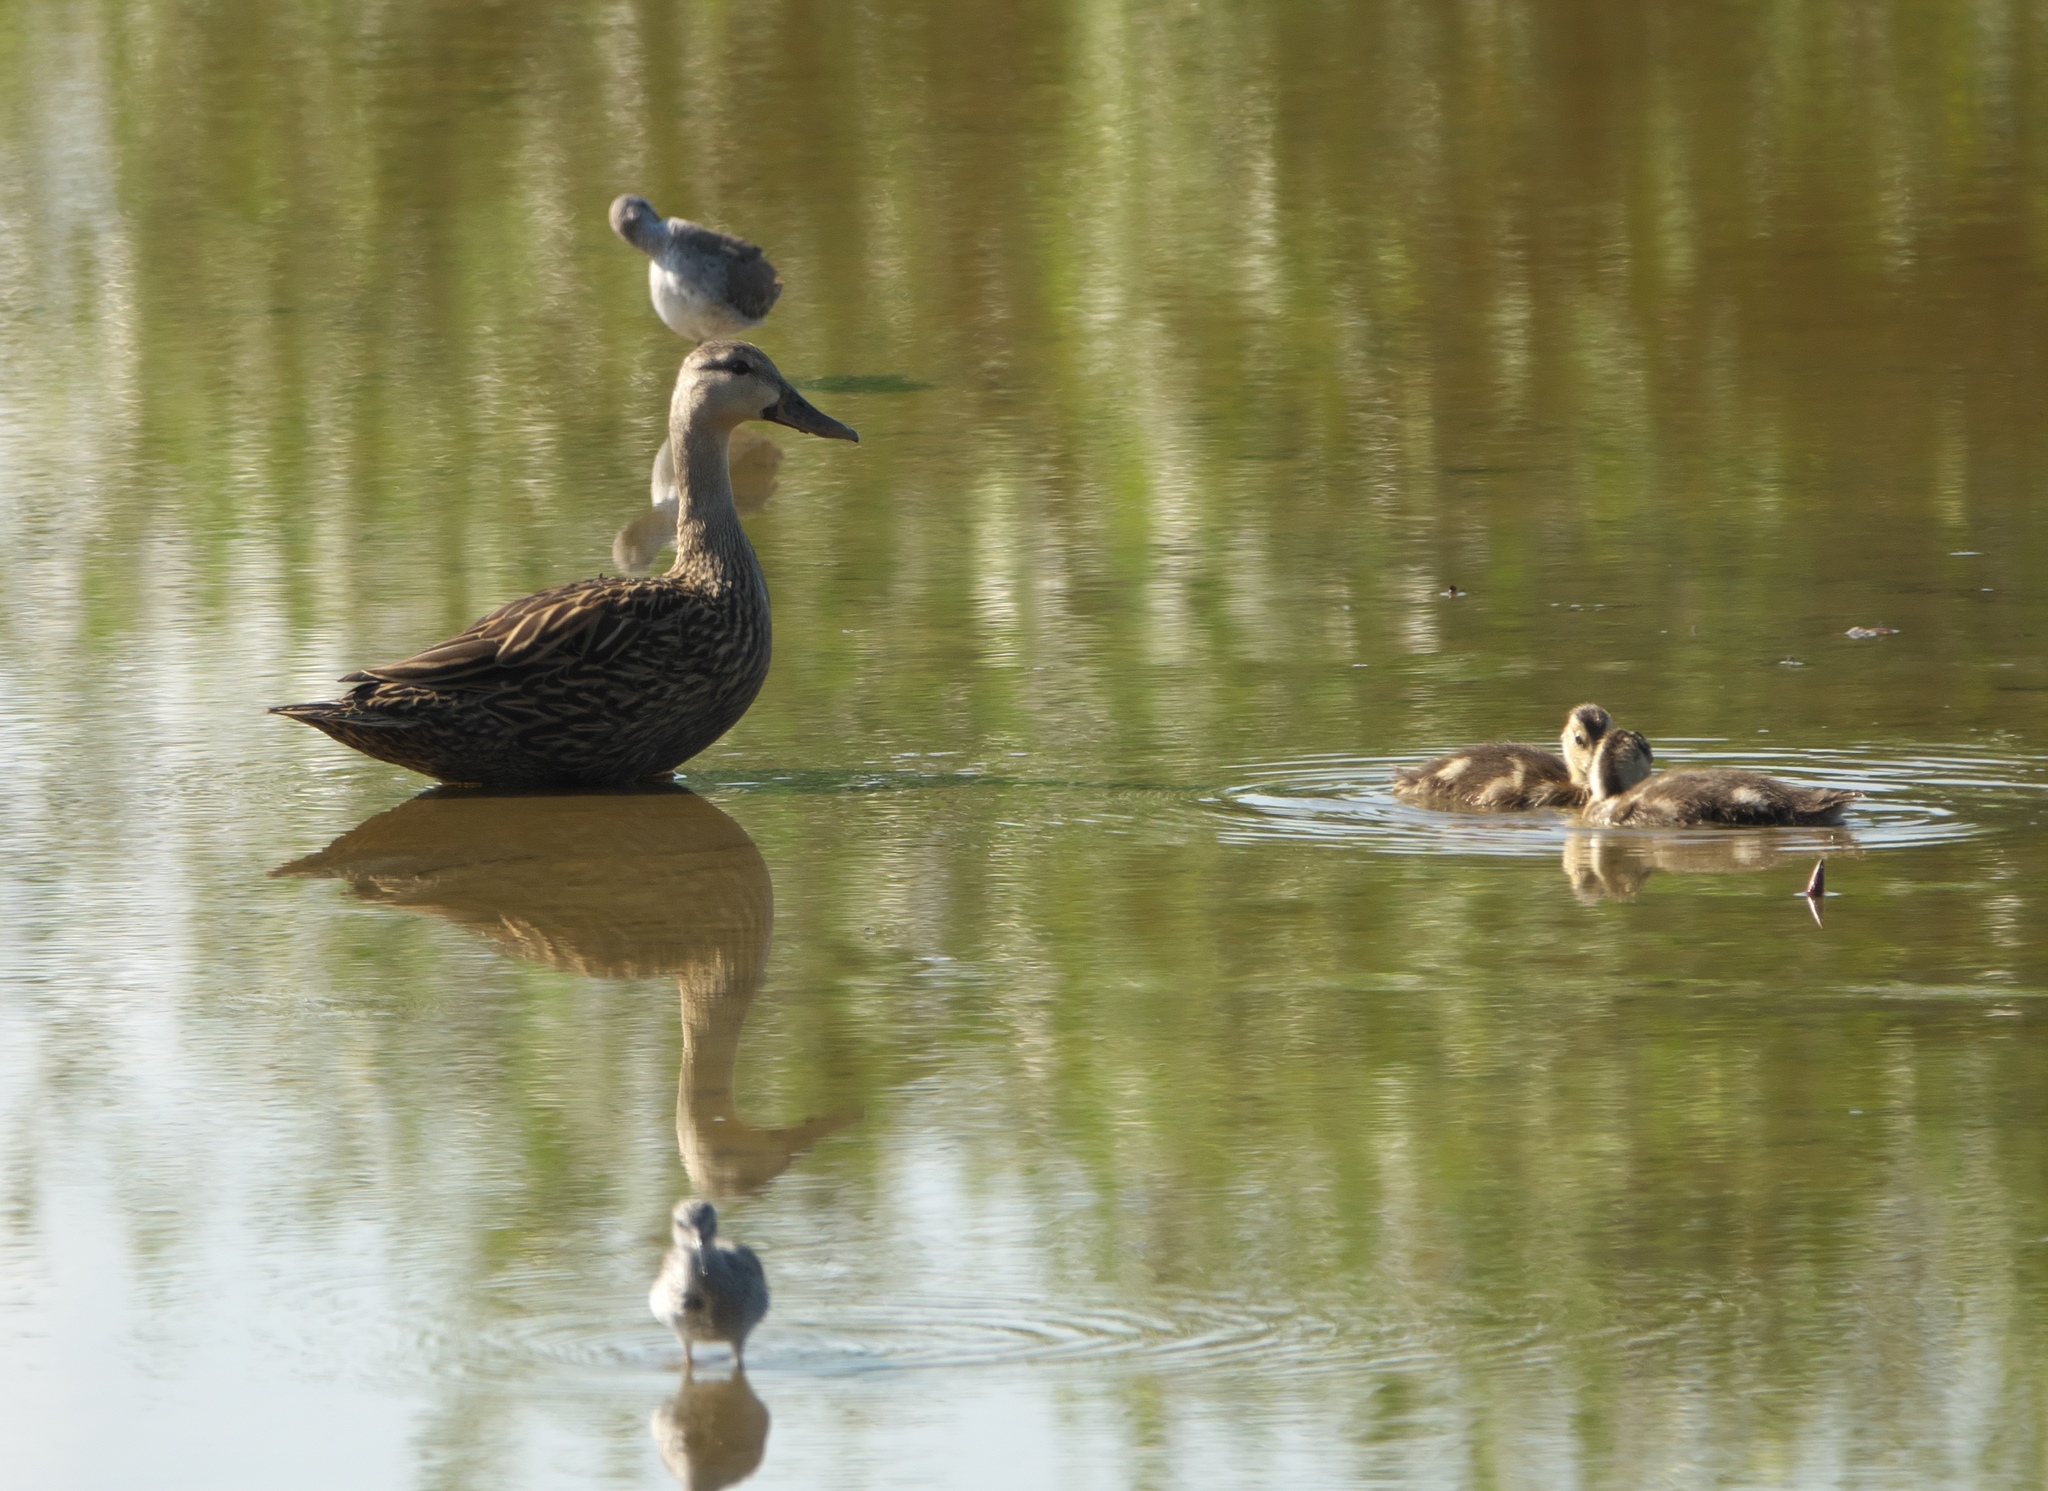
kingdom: Animalia
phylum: Chordata
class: Aves
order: Anseriformes
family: Anatidae
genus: Anas
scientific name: Anas fulvigula
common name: Mottled duck
